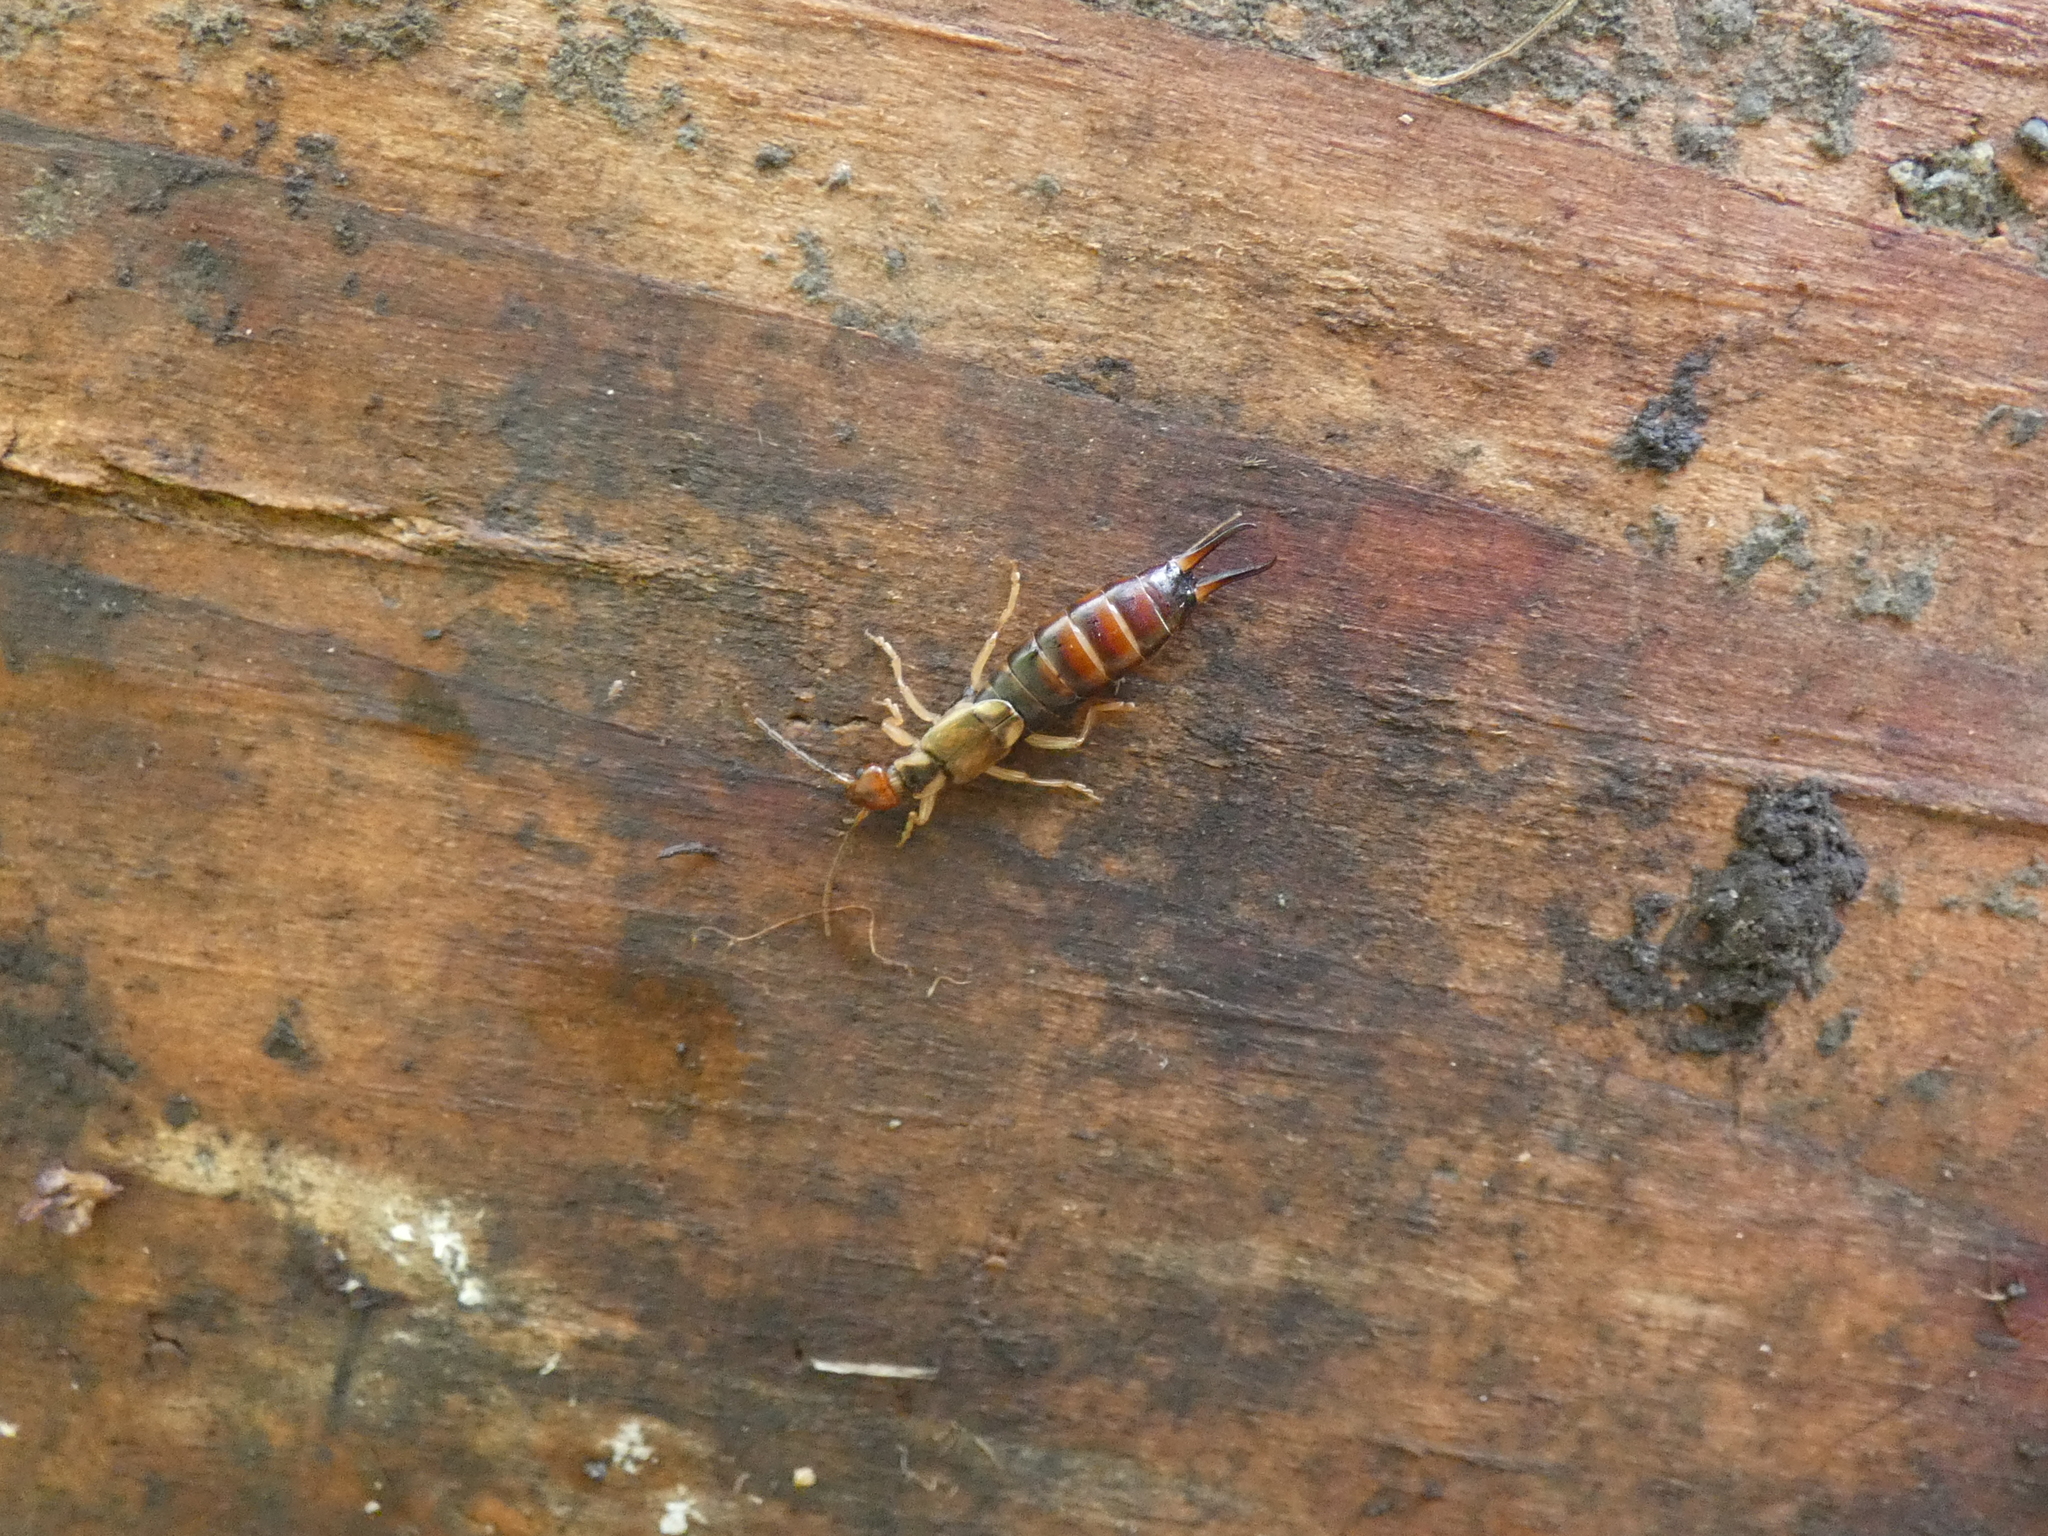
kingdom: Animalia
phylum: Arthropoda
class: Insecta
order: Dermaptera
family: Forficulidae
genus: Forficula
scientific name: Forficula
